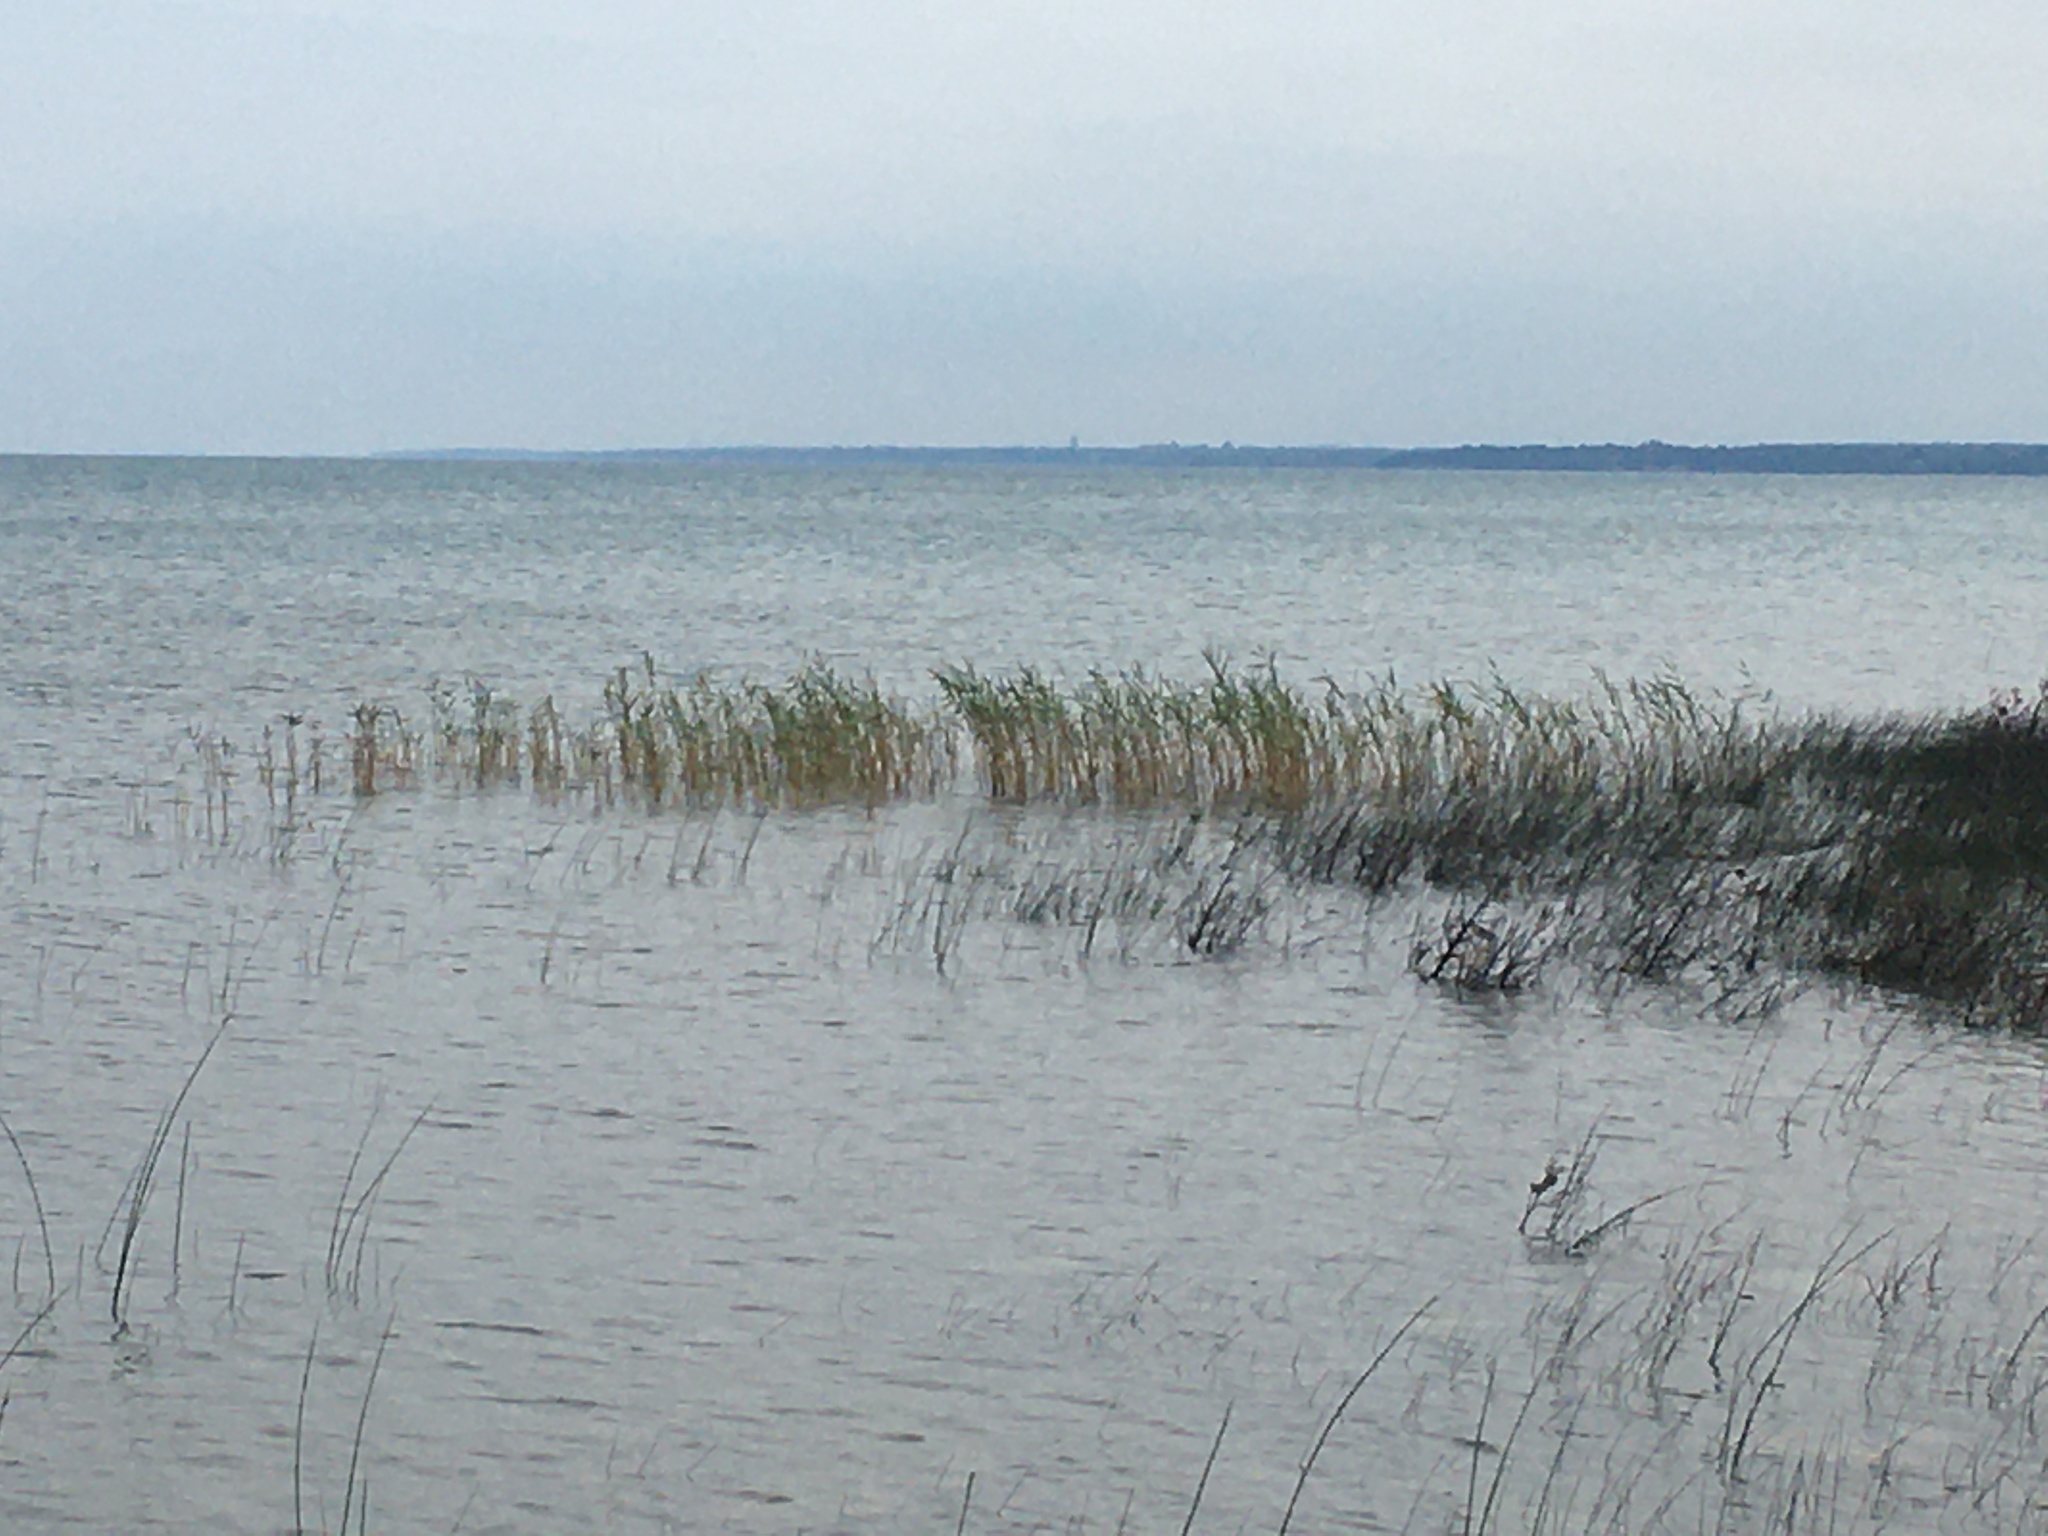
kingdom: Plantae
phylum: Tracheophyta
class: Liliopsida
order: Poales
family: Poaceae
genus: Phragmites
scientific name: Phragmites australis
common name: Common reed
